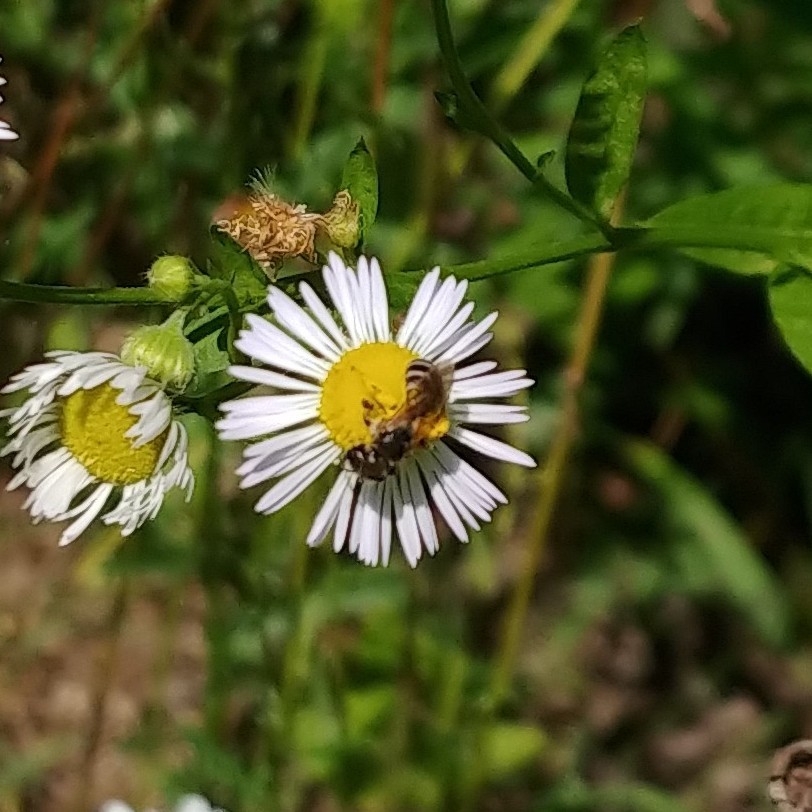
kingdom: Animalia
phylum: Arthropoda
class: Insecta
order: Hymenoptera
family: Halictidae
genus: Halictus
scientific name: Halictus ligatus
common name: Ligated furrow bee
